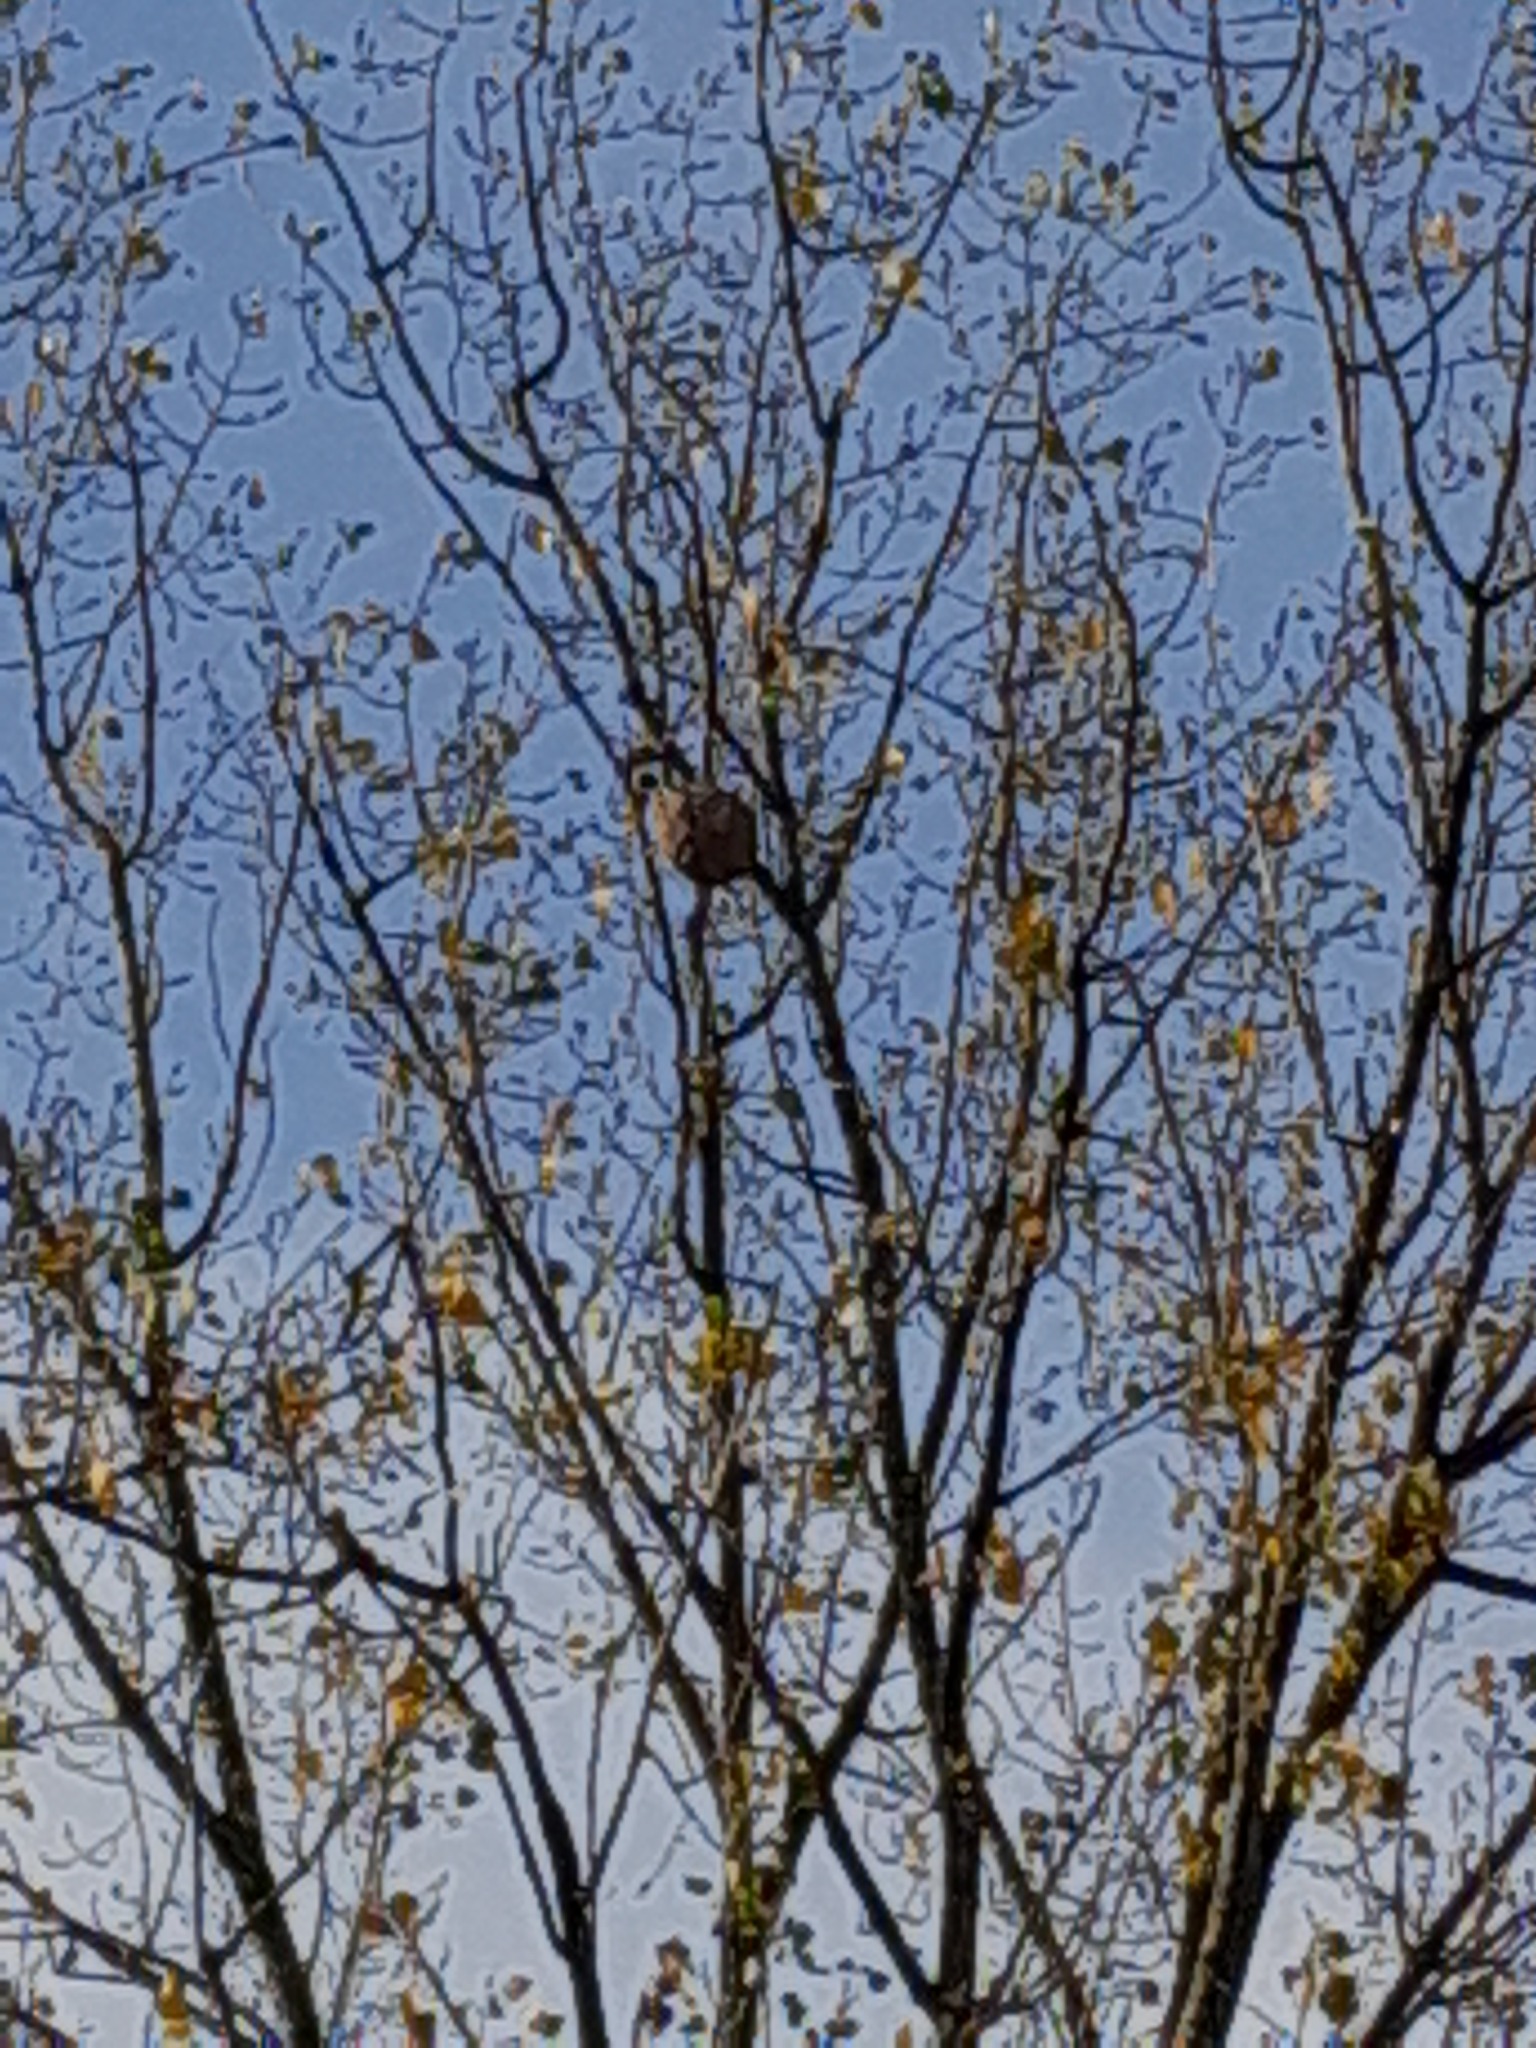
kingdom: Animalia
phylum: Arthropoda
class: Insecta
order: Hymenoptera
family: Vespidae
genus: Vespa
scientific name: Vespa velutina
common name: Asian hornet
